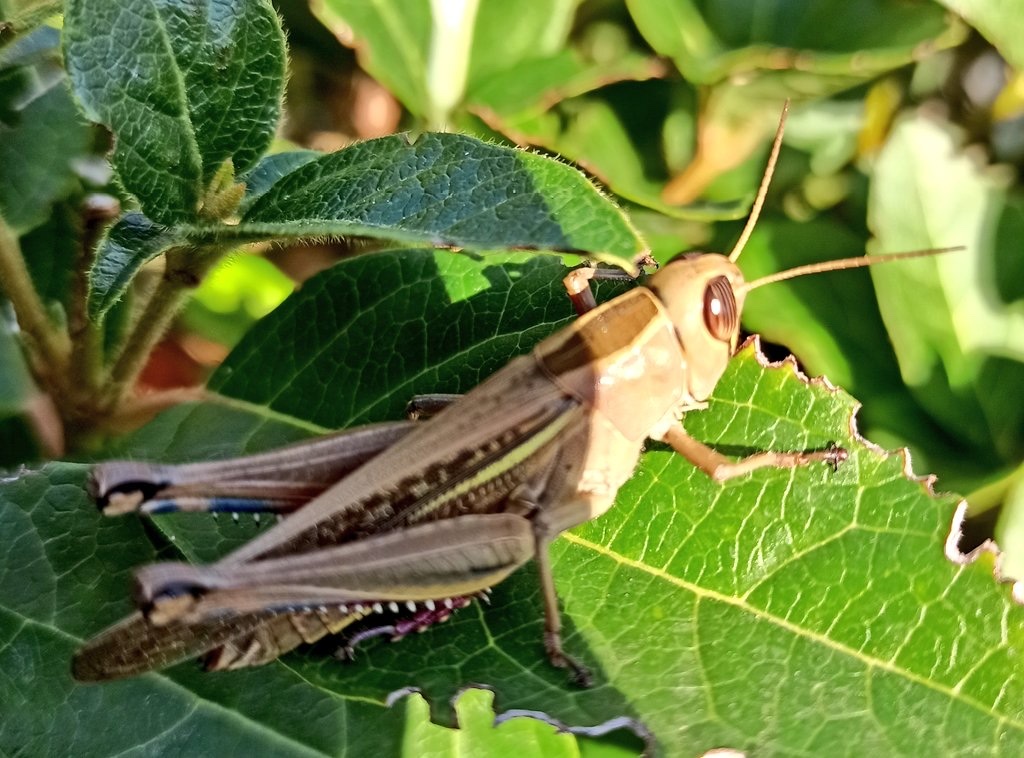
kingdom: Animalia
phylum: Arthropoda
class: Insecta
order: Orthoptera
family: Acrididae
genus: Eyprepocnemis
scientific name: Eyprepocnemis plorans
